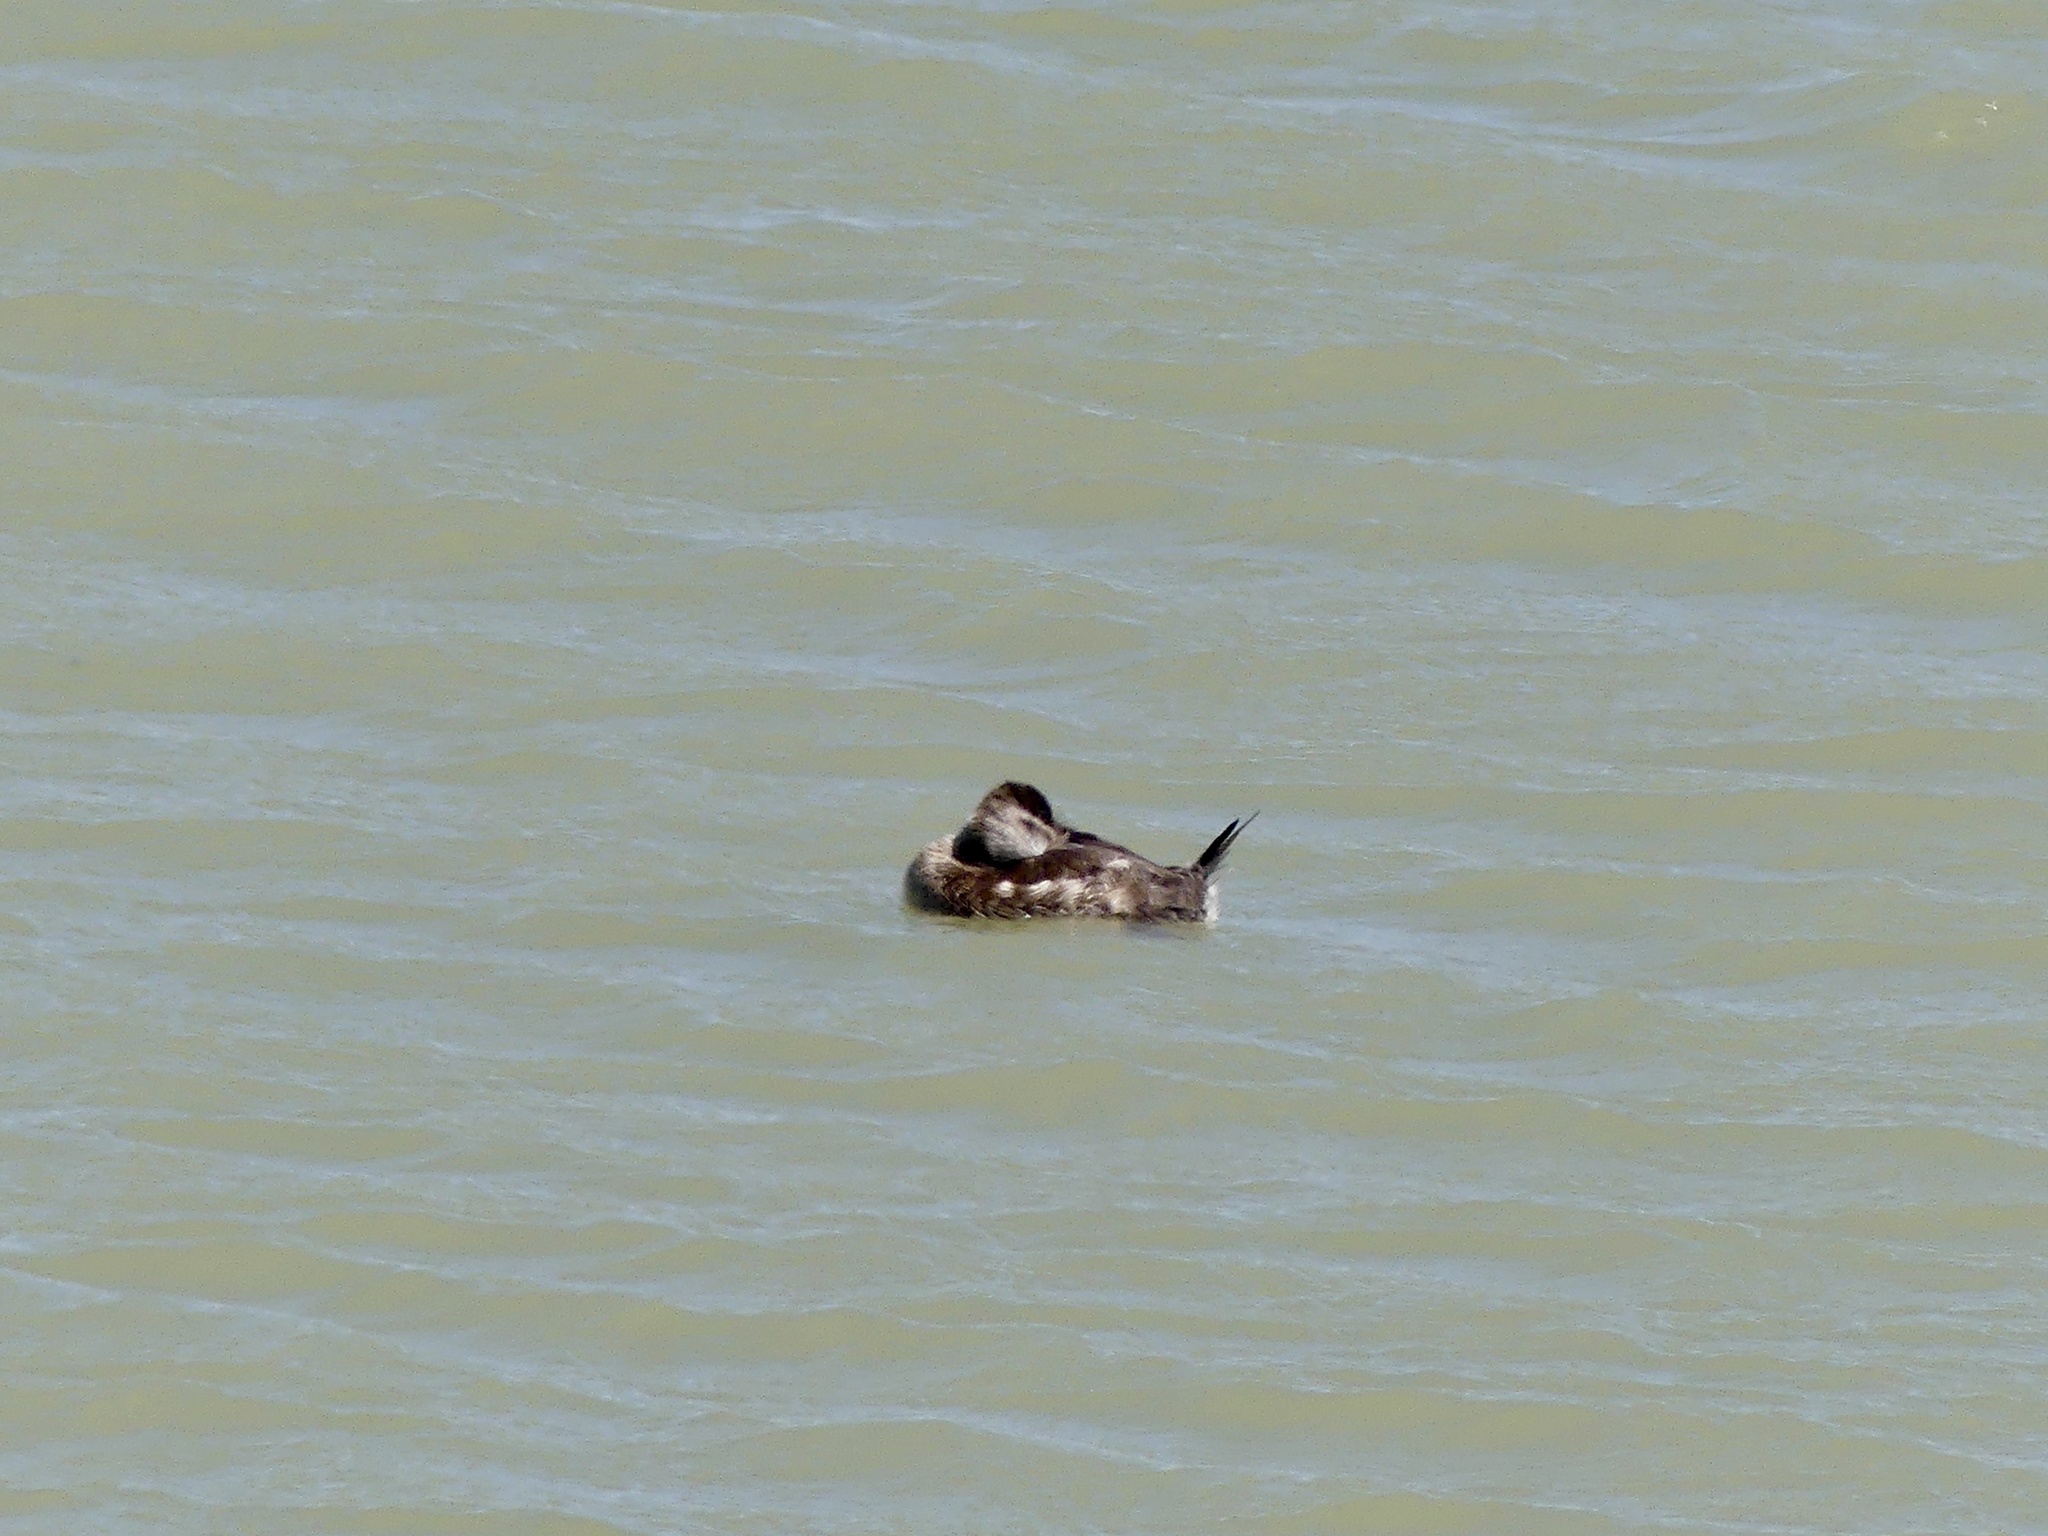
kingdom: Animalia
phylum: Chordata
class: Aves
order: Anseriformes
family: Anatidae
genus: Oxyura
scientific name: Oxyura jamaicensis
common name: Ruddy duck
